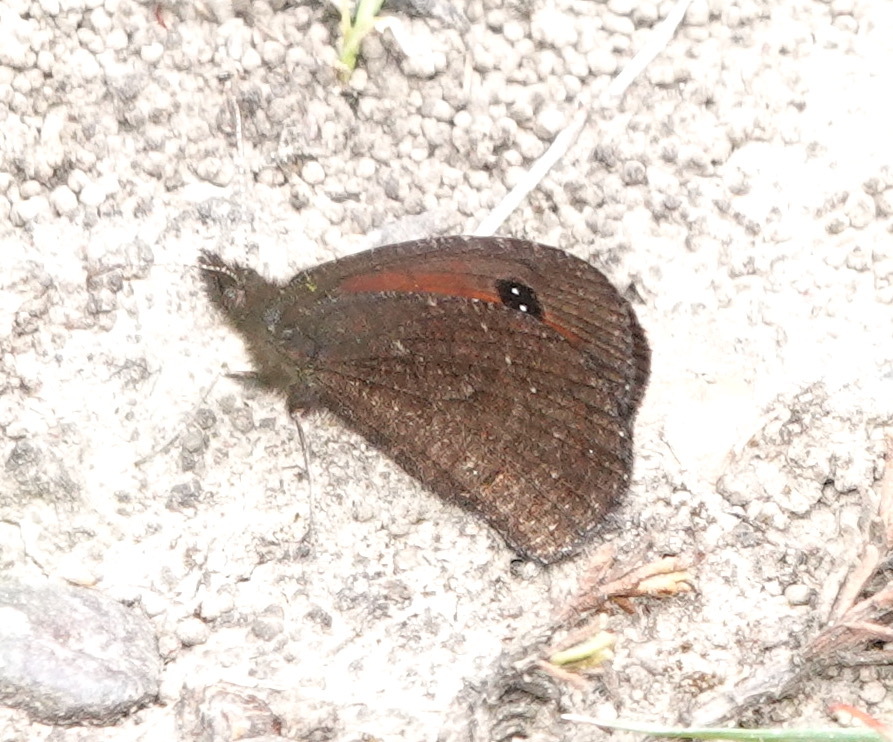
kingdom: Animalia
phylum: Arthropoda
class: Insecta
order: Lepidoptera
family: Nymphalidae
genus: Erebia
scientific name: Erebia
